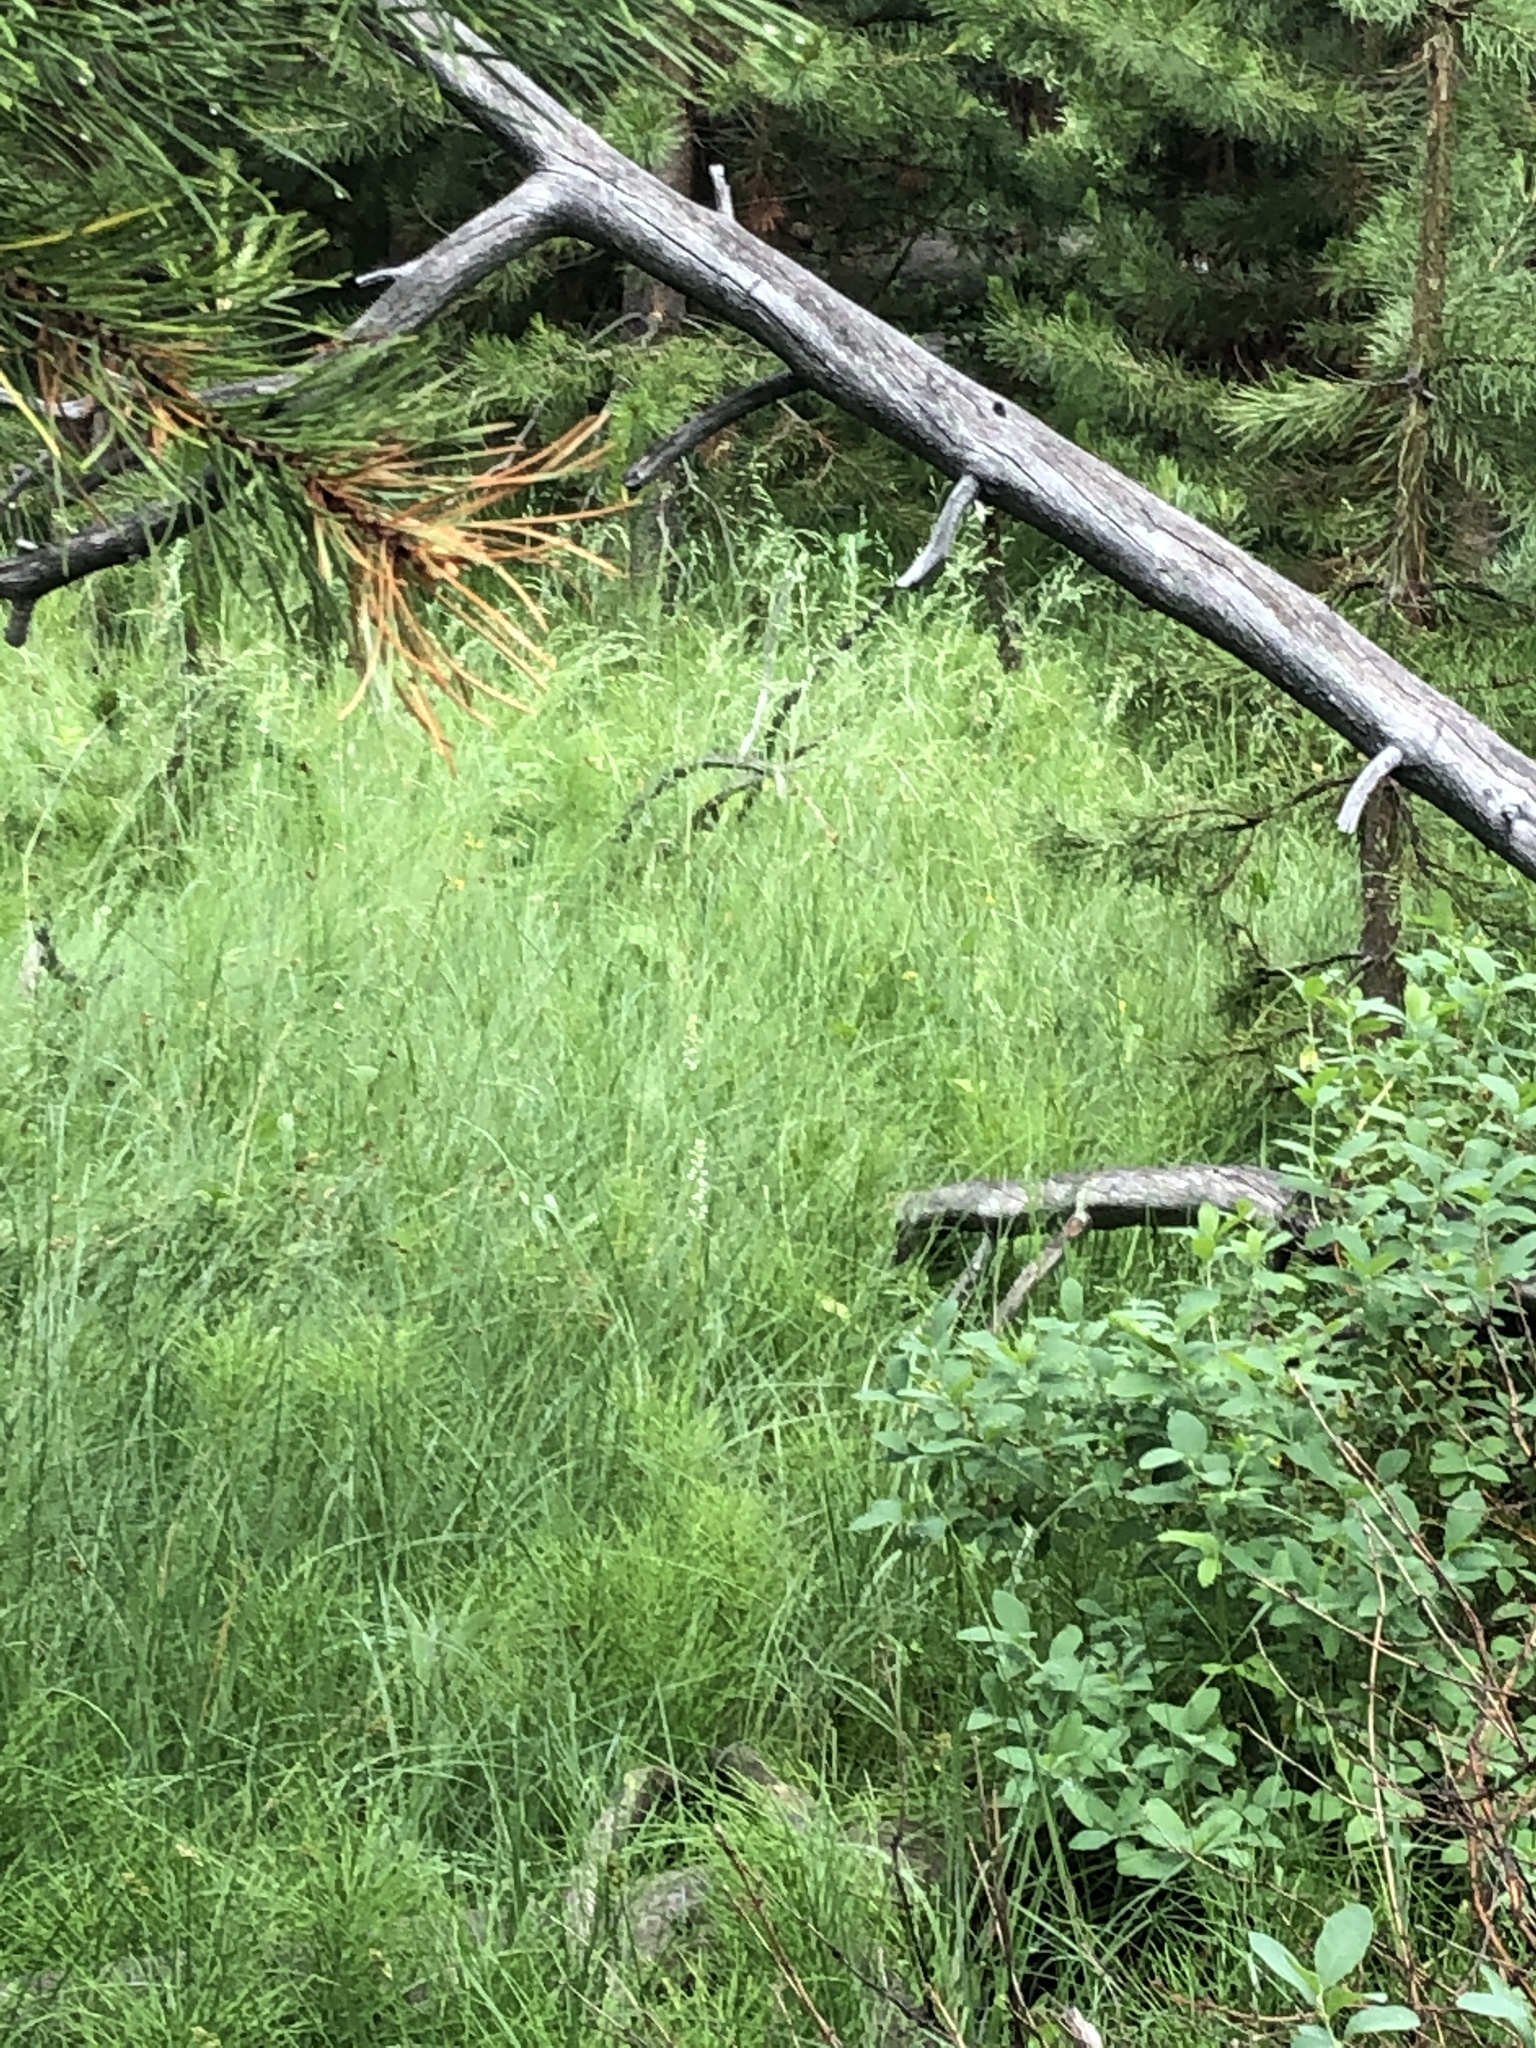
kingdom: Plantae
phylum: Tracheophyta
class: Liliopsida
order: Asparagales
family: Orchidaceae
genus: Platanthera
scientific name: Platanthera dilatata
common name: Bog candles
